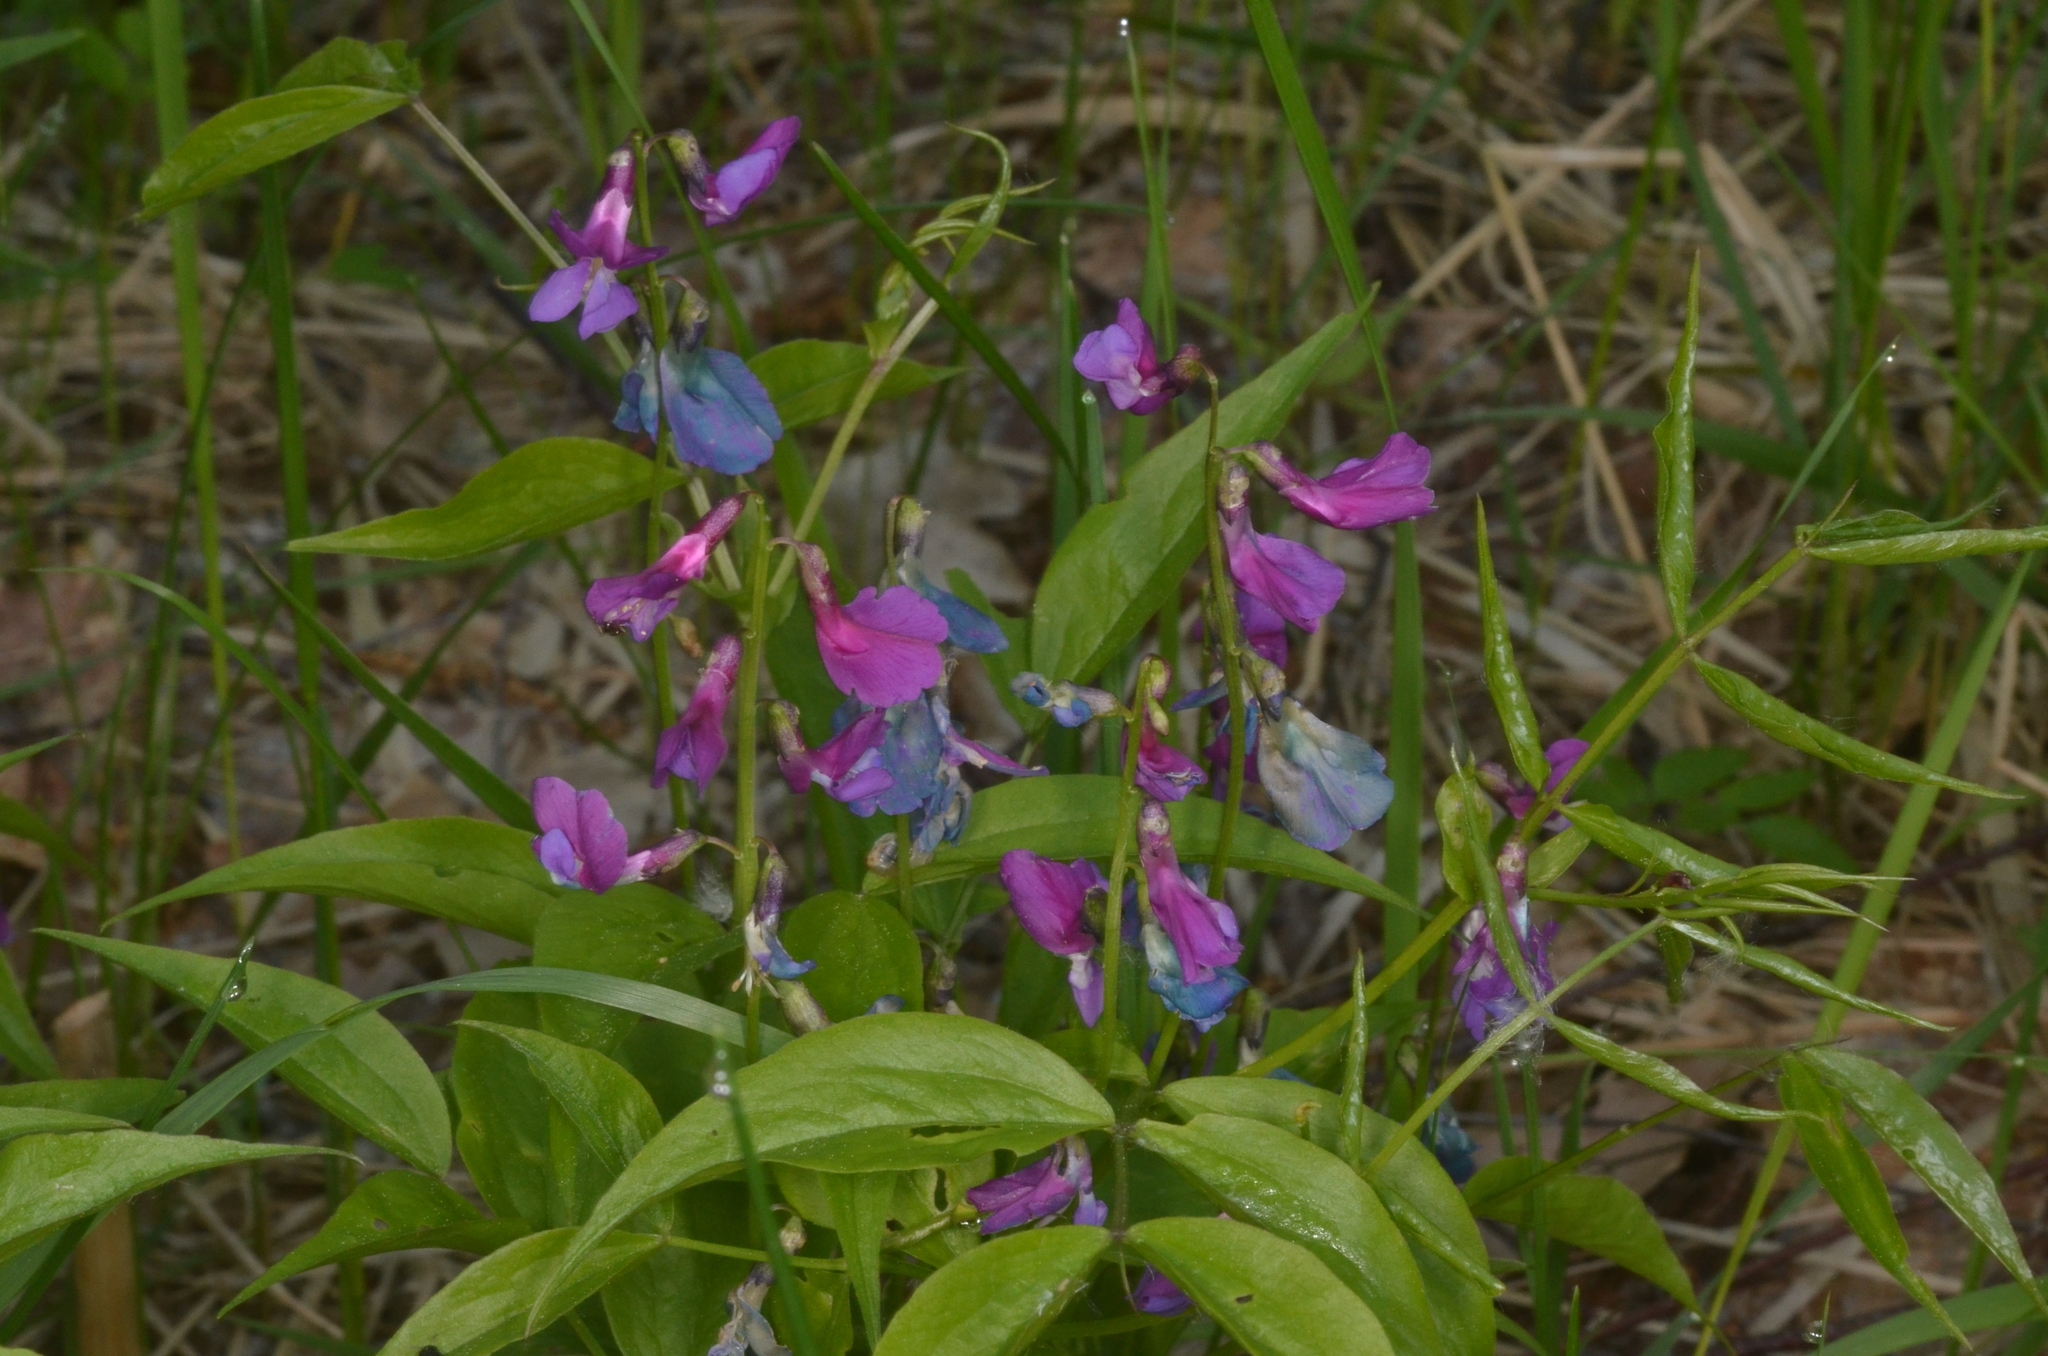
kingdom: Plantae
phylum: Tracheophyta
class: Magnoliopsida
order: Fabales
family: Fabaceae
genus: Lathyrus
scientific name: Lathyrus vernus
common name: Spring pea
